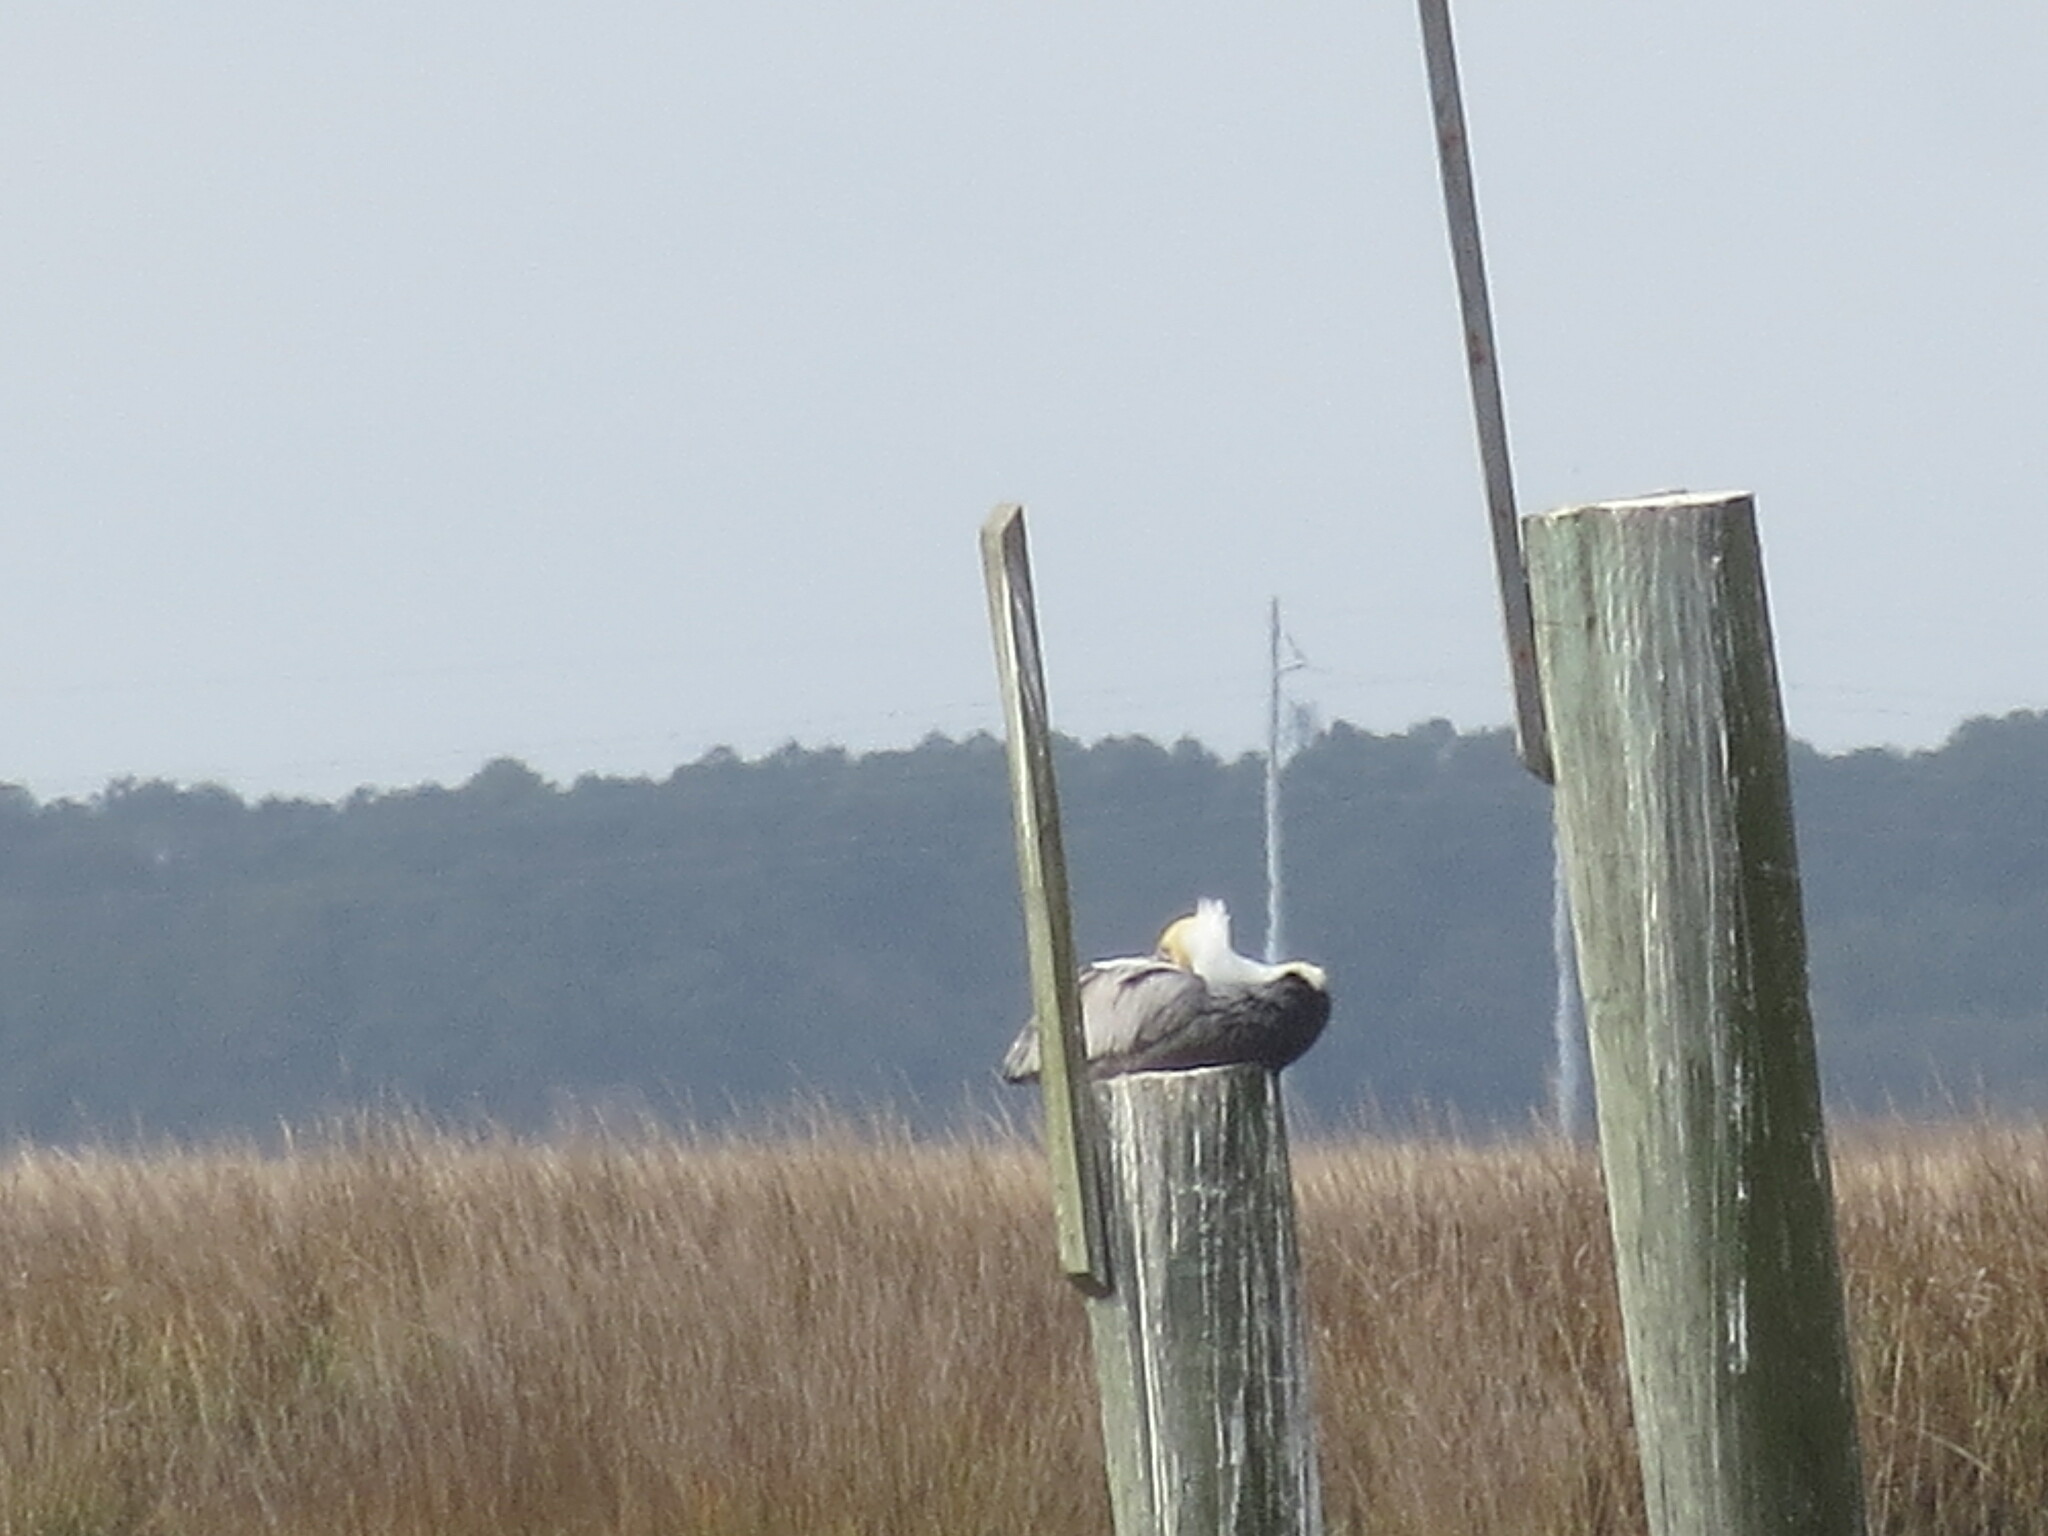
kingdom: Animalia
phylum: Chordata
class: Aves
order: Pelecaniformes
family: Pelecanidae
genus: Pelecanus
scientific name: Pelecanus occidentalis
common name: Brown pelican
